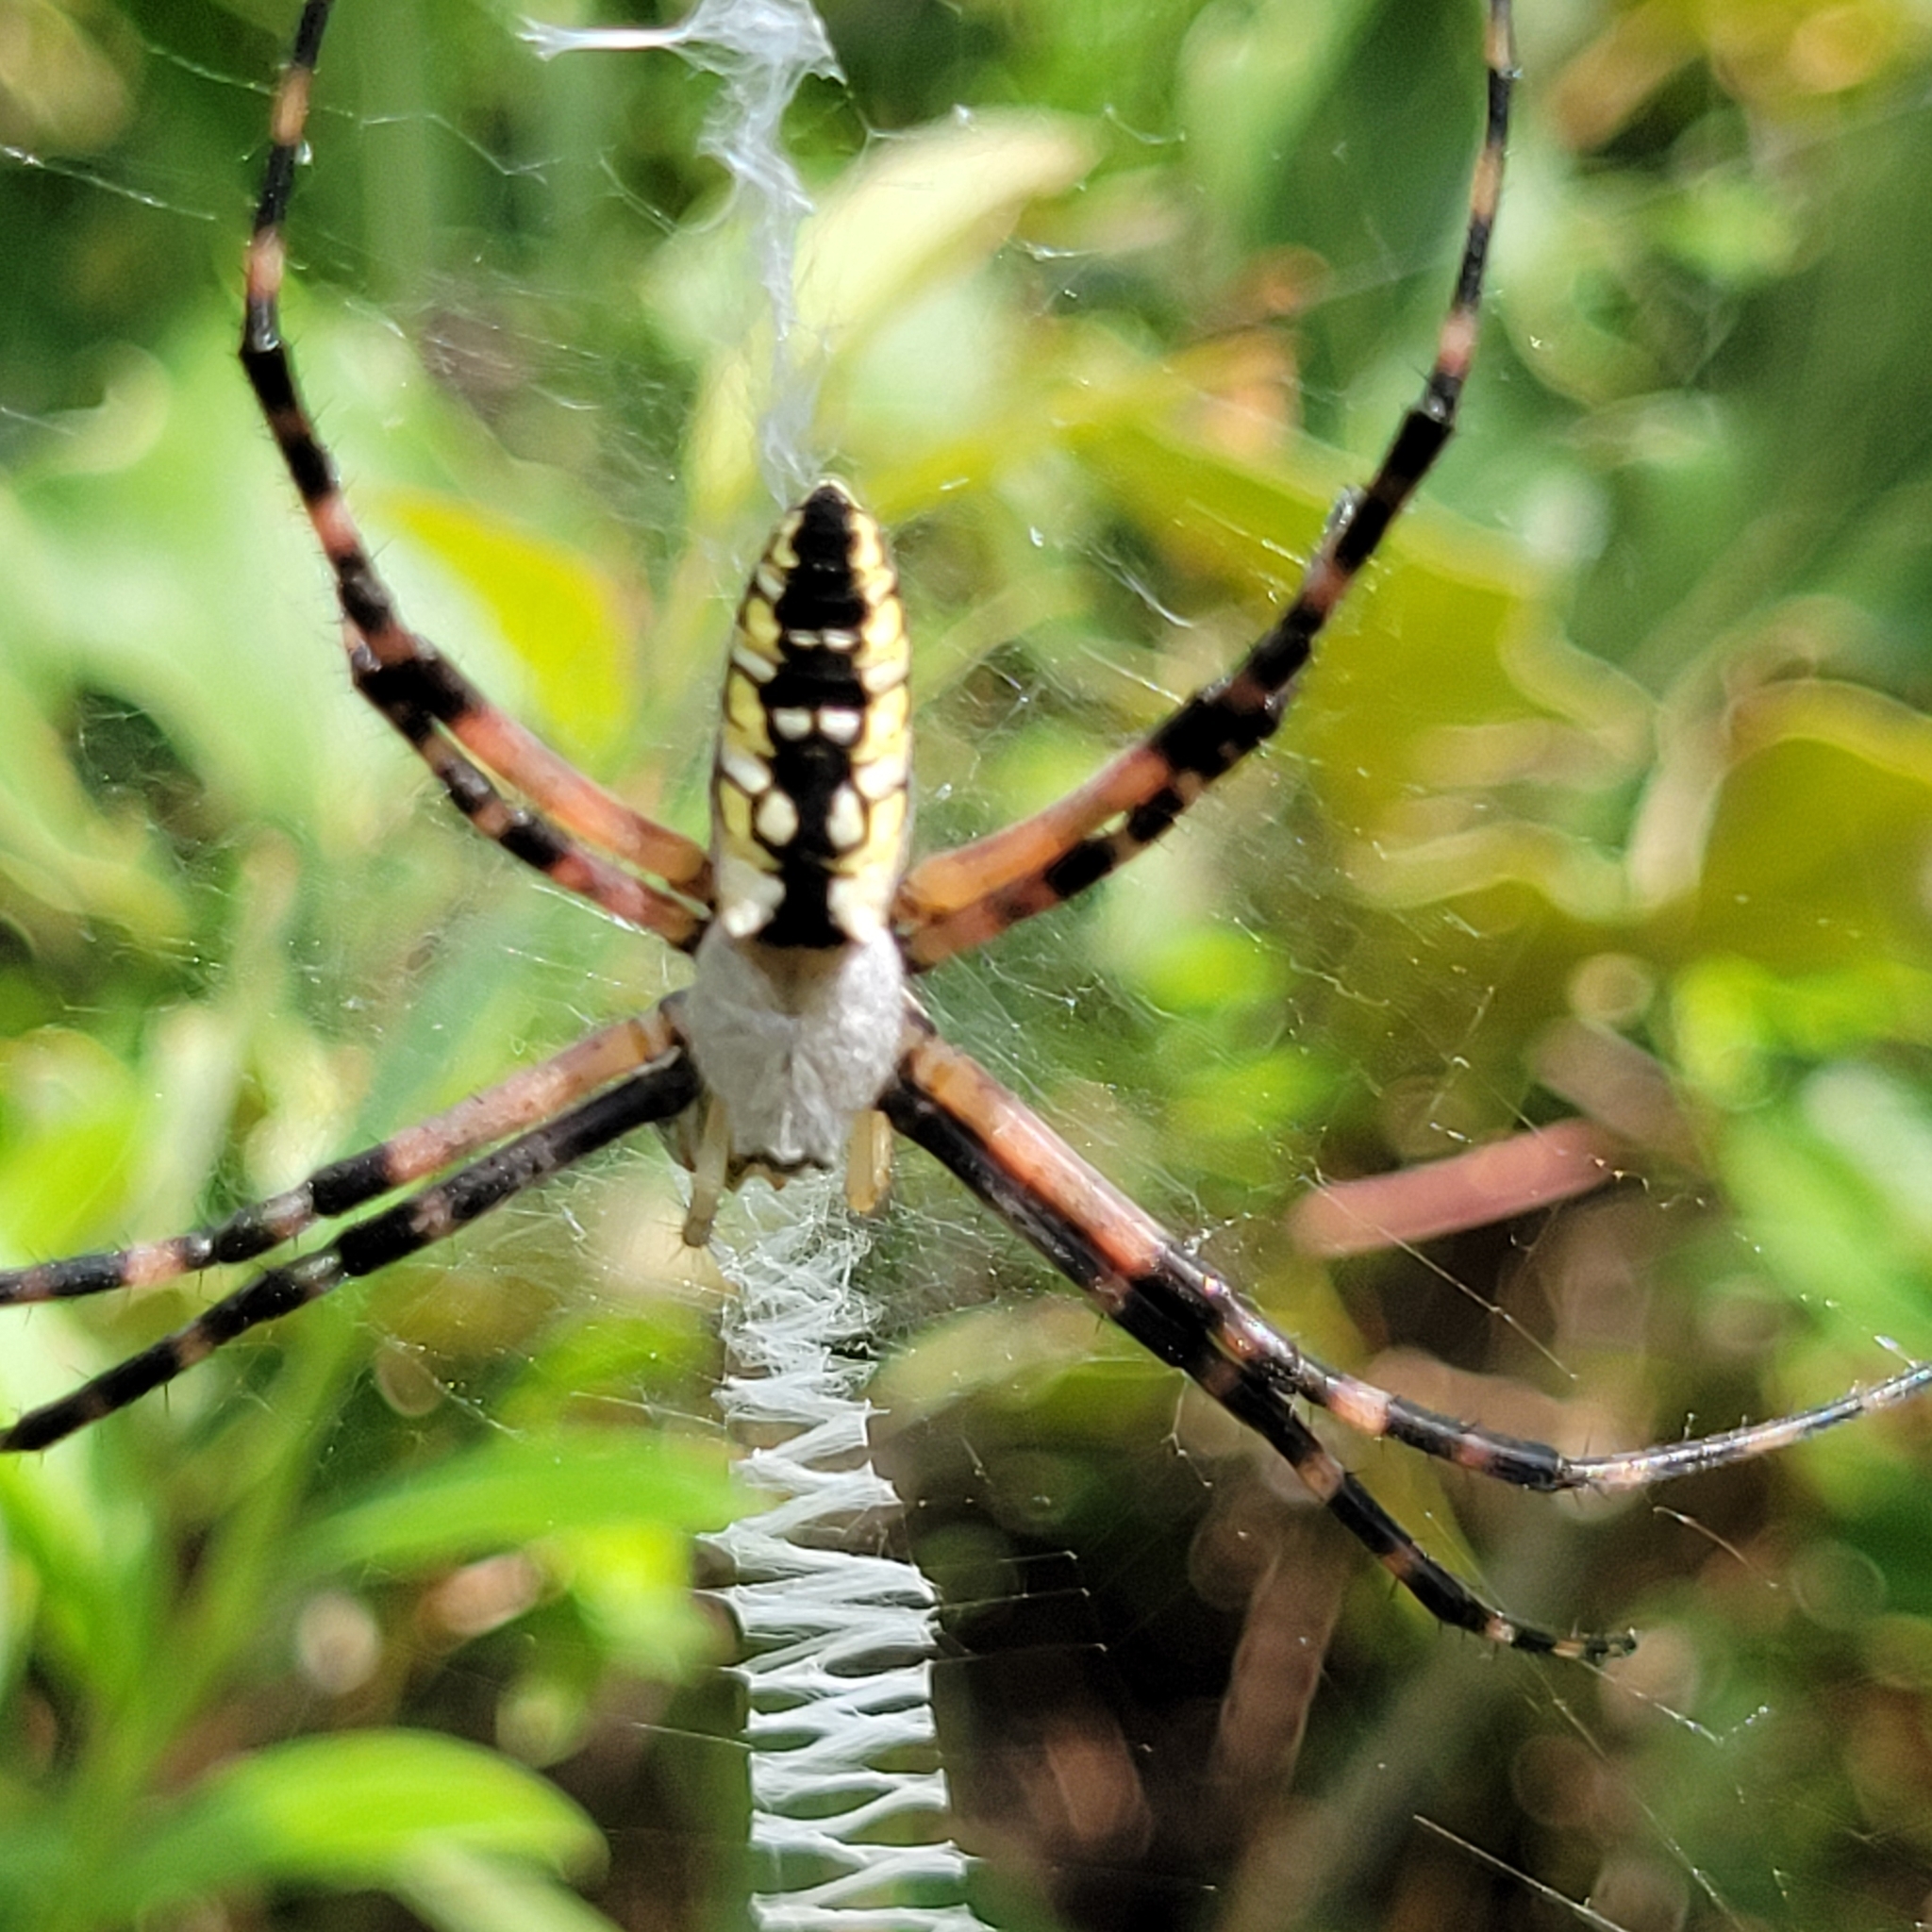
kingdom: Animalia
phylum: Arthropoda
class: Arachnida
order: Araneae
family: Araneidae
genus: Argiope
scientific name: Argiope aurantia
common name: Orb weavers
